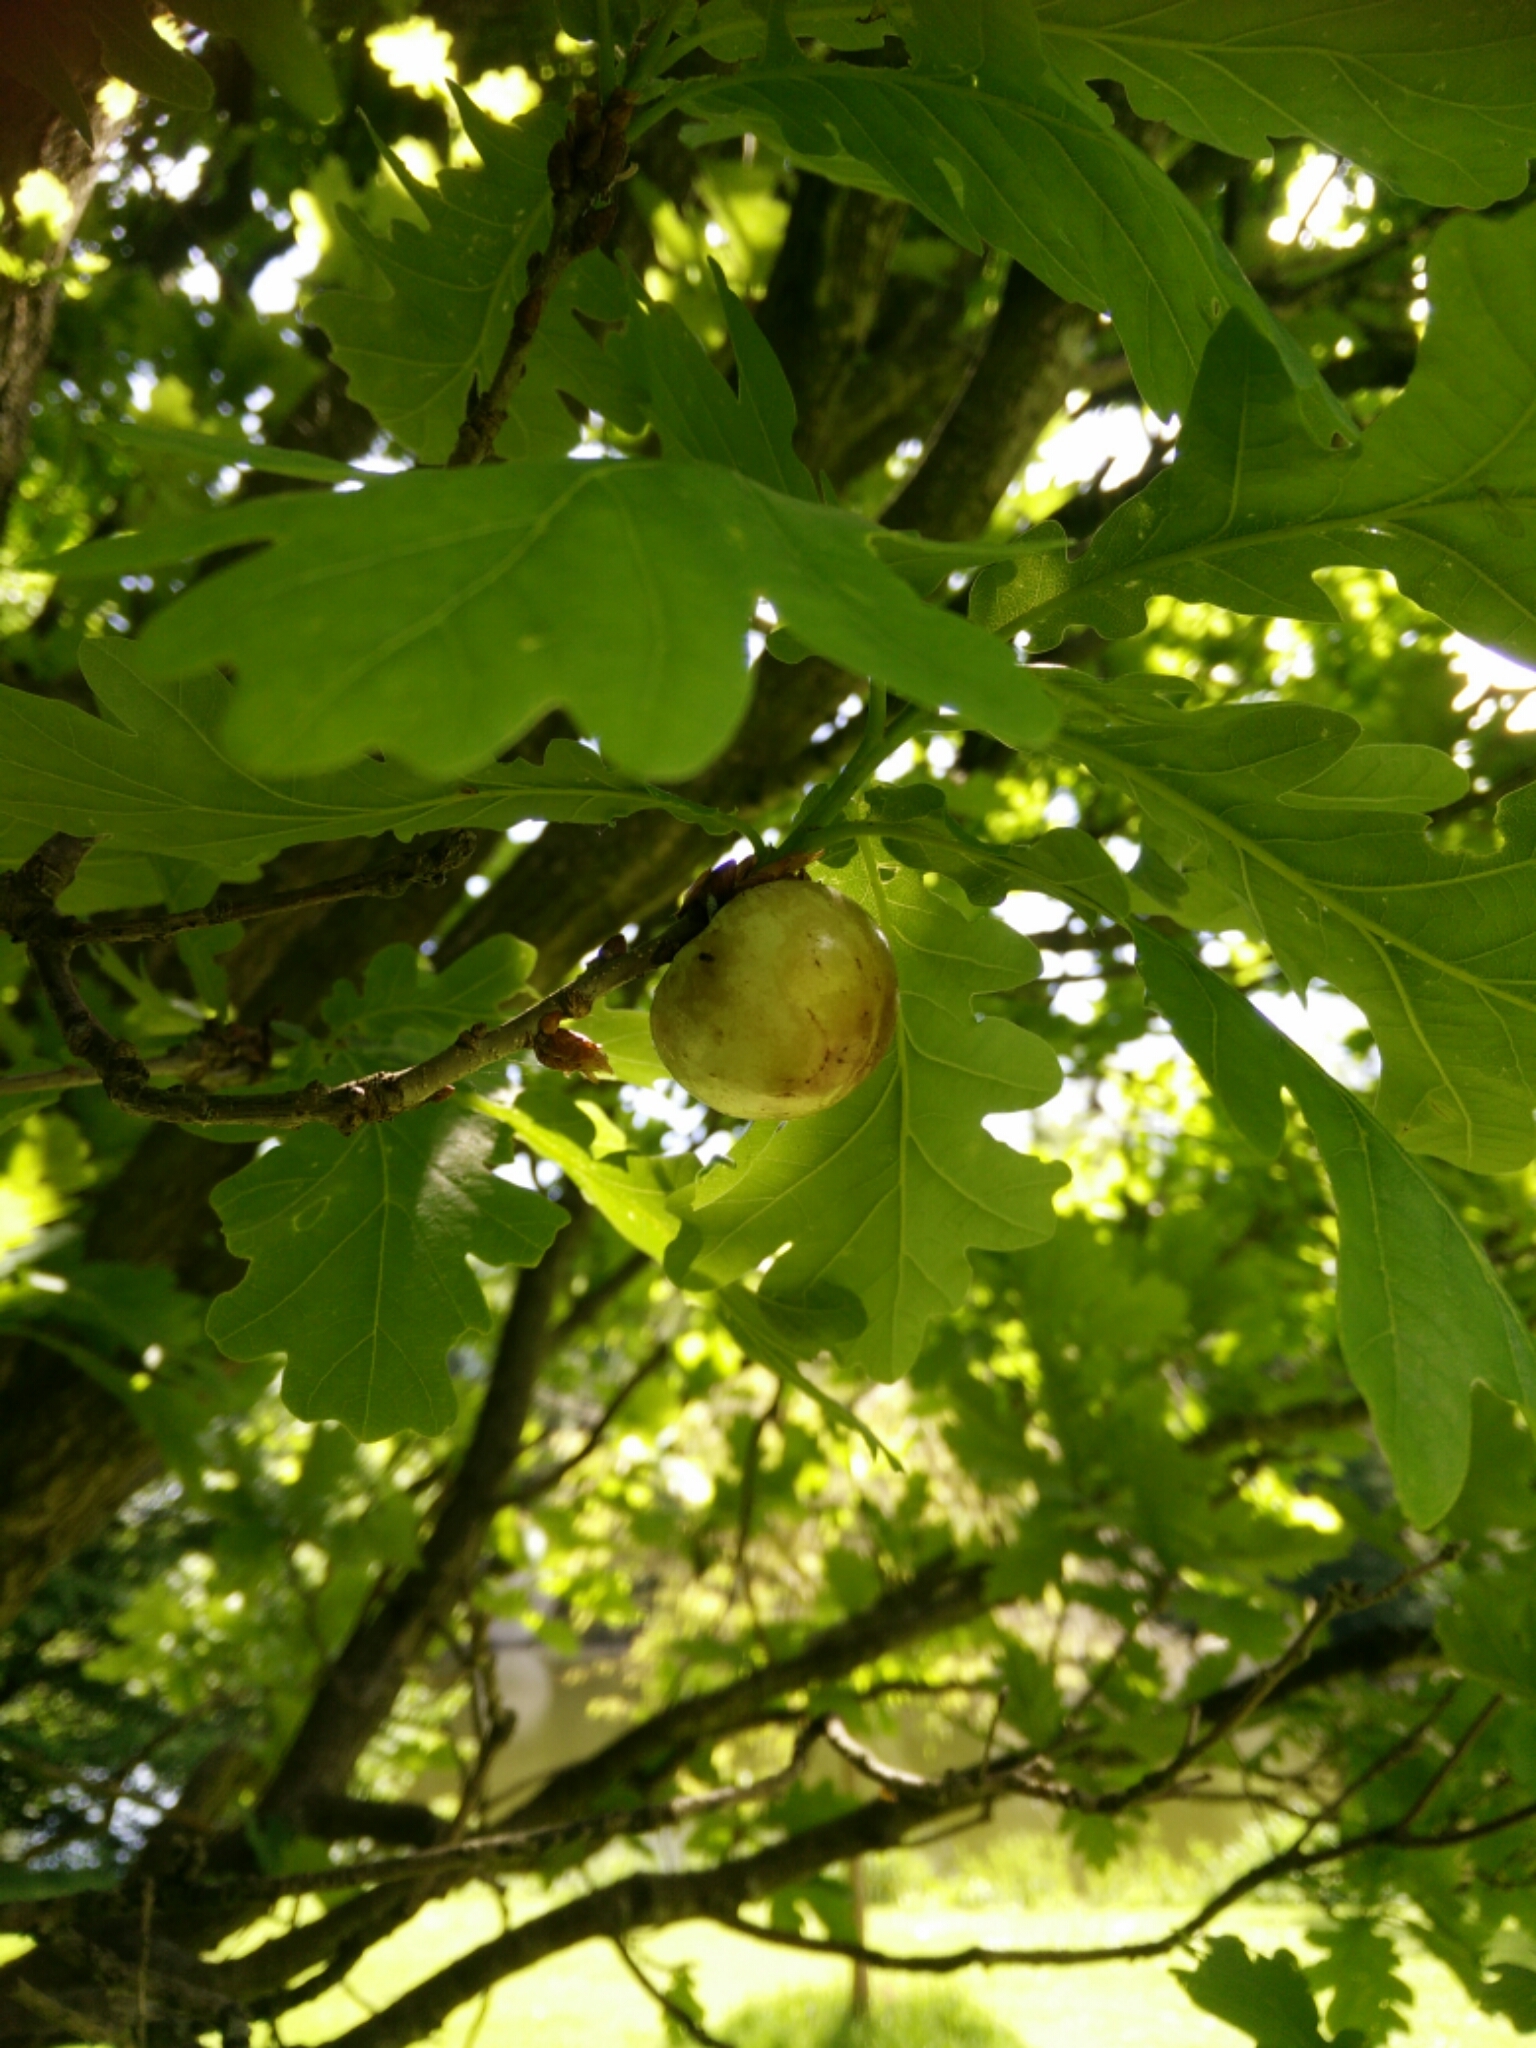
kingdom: Animalia
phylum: Arthropoda
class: Insecta
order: Hymenoptera
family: Cynipidae
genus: Biorhiza
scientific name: Biorhiza pallida
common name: Oak apple
